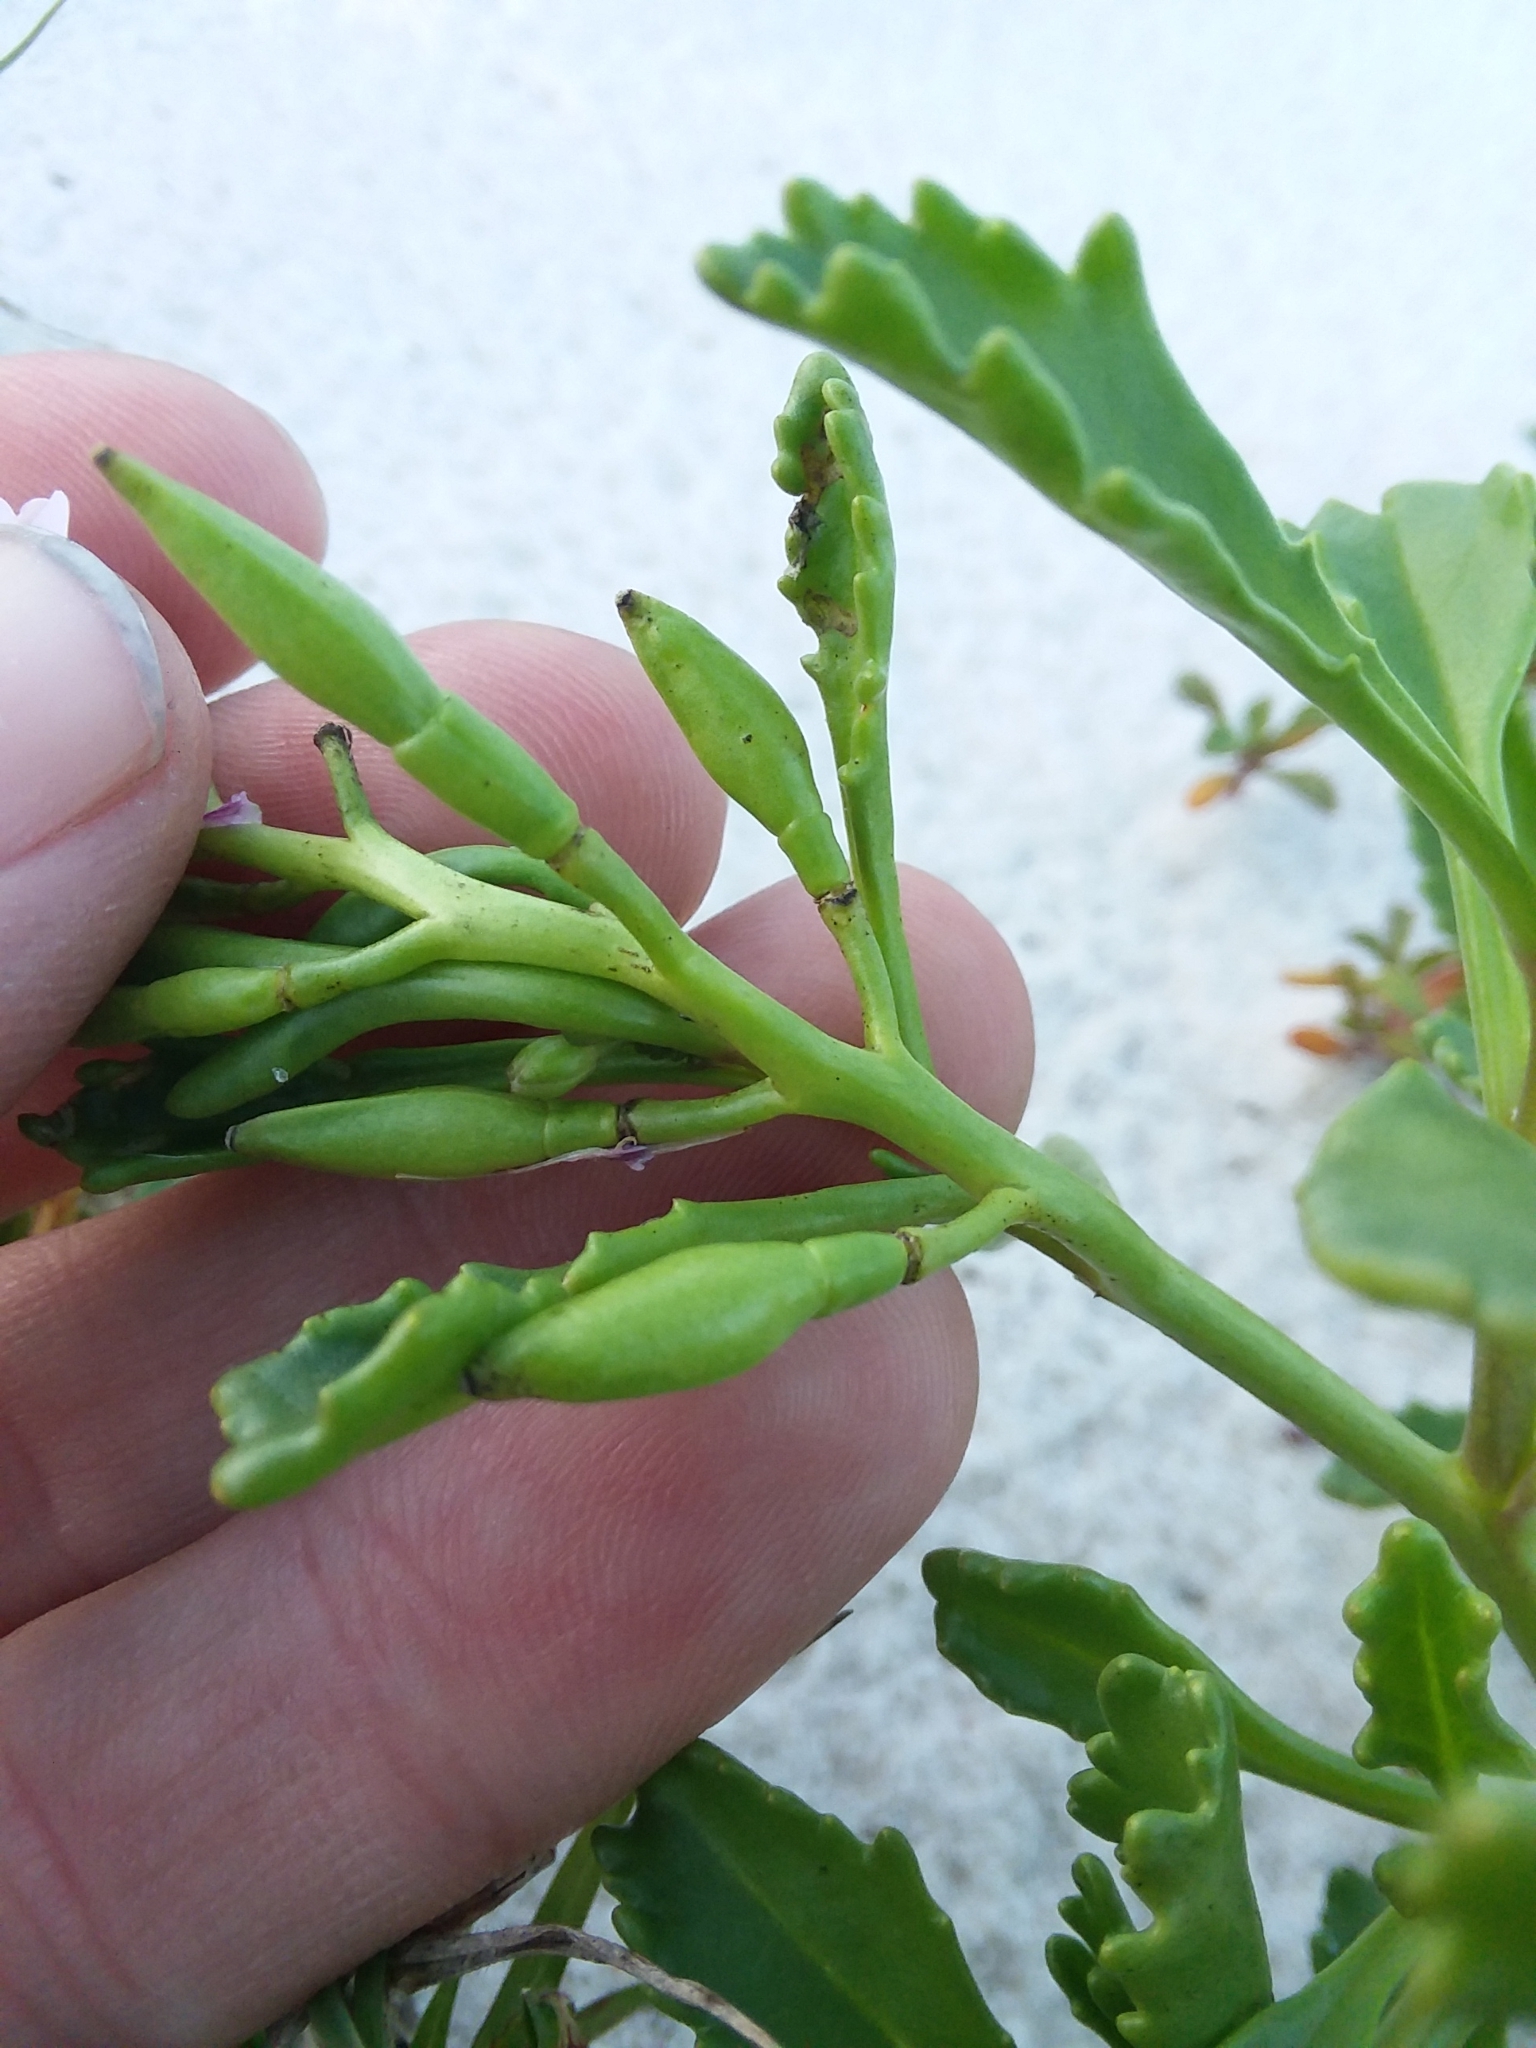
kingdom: Plantae
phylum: Tracheophyta
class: Magnoliopsida
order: Brassicales
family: Brassicaceae
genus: Cakile
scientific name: Cakile constricta
